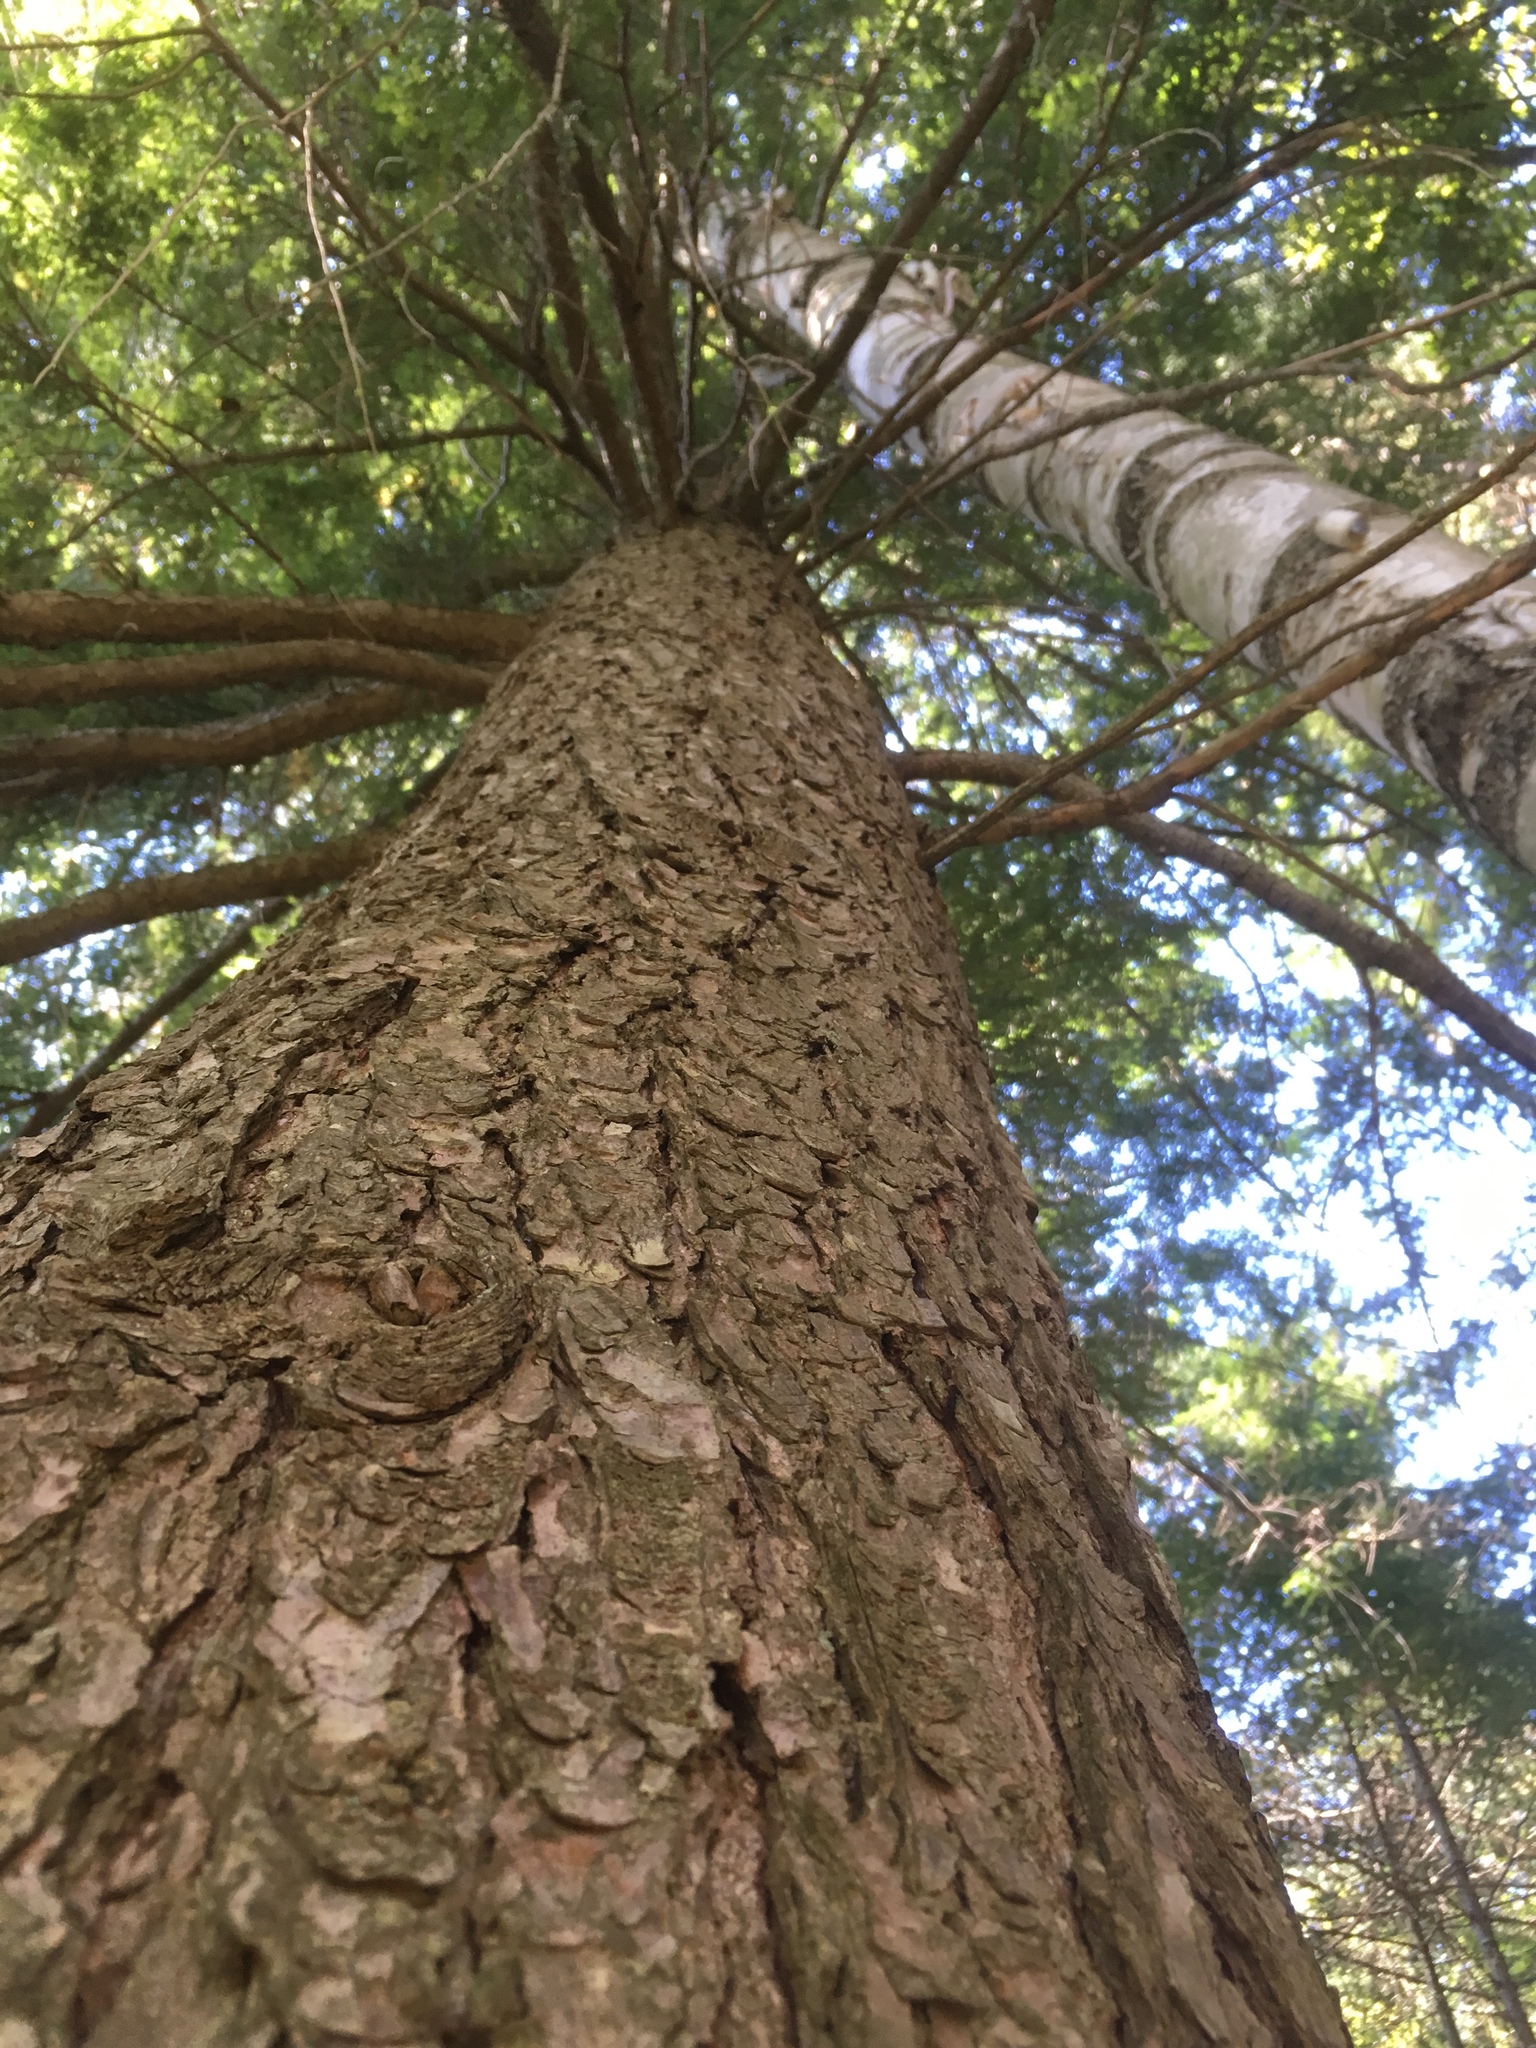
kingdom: Plantae
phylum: Tracheophyta
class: Pinopsida
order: Pinales
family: Pinaceae
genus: Tsuga
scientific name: Tsuga canadensis
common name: Eastern hemlock
